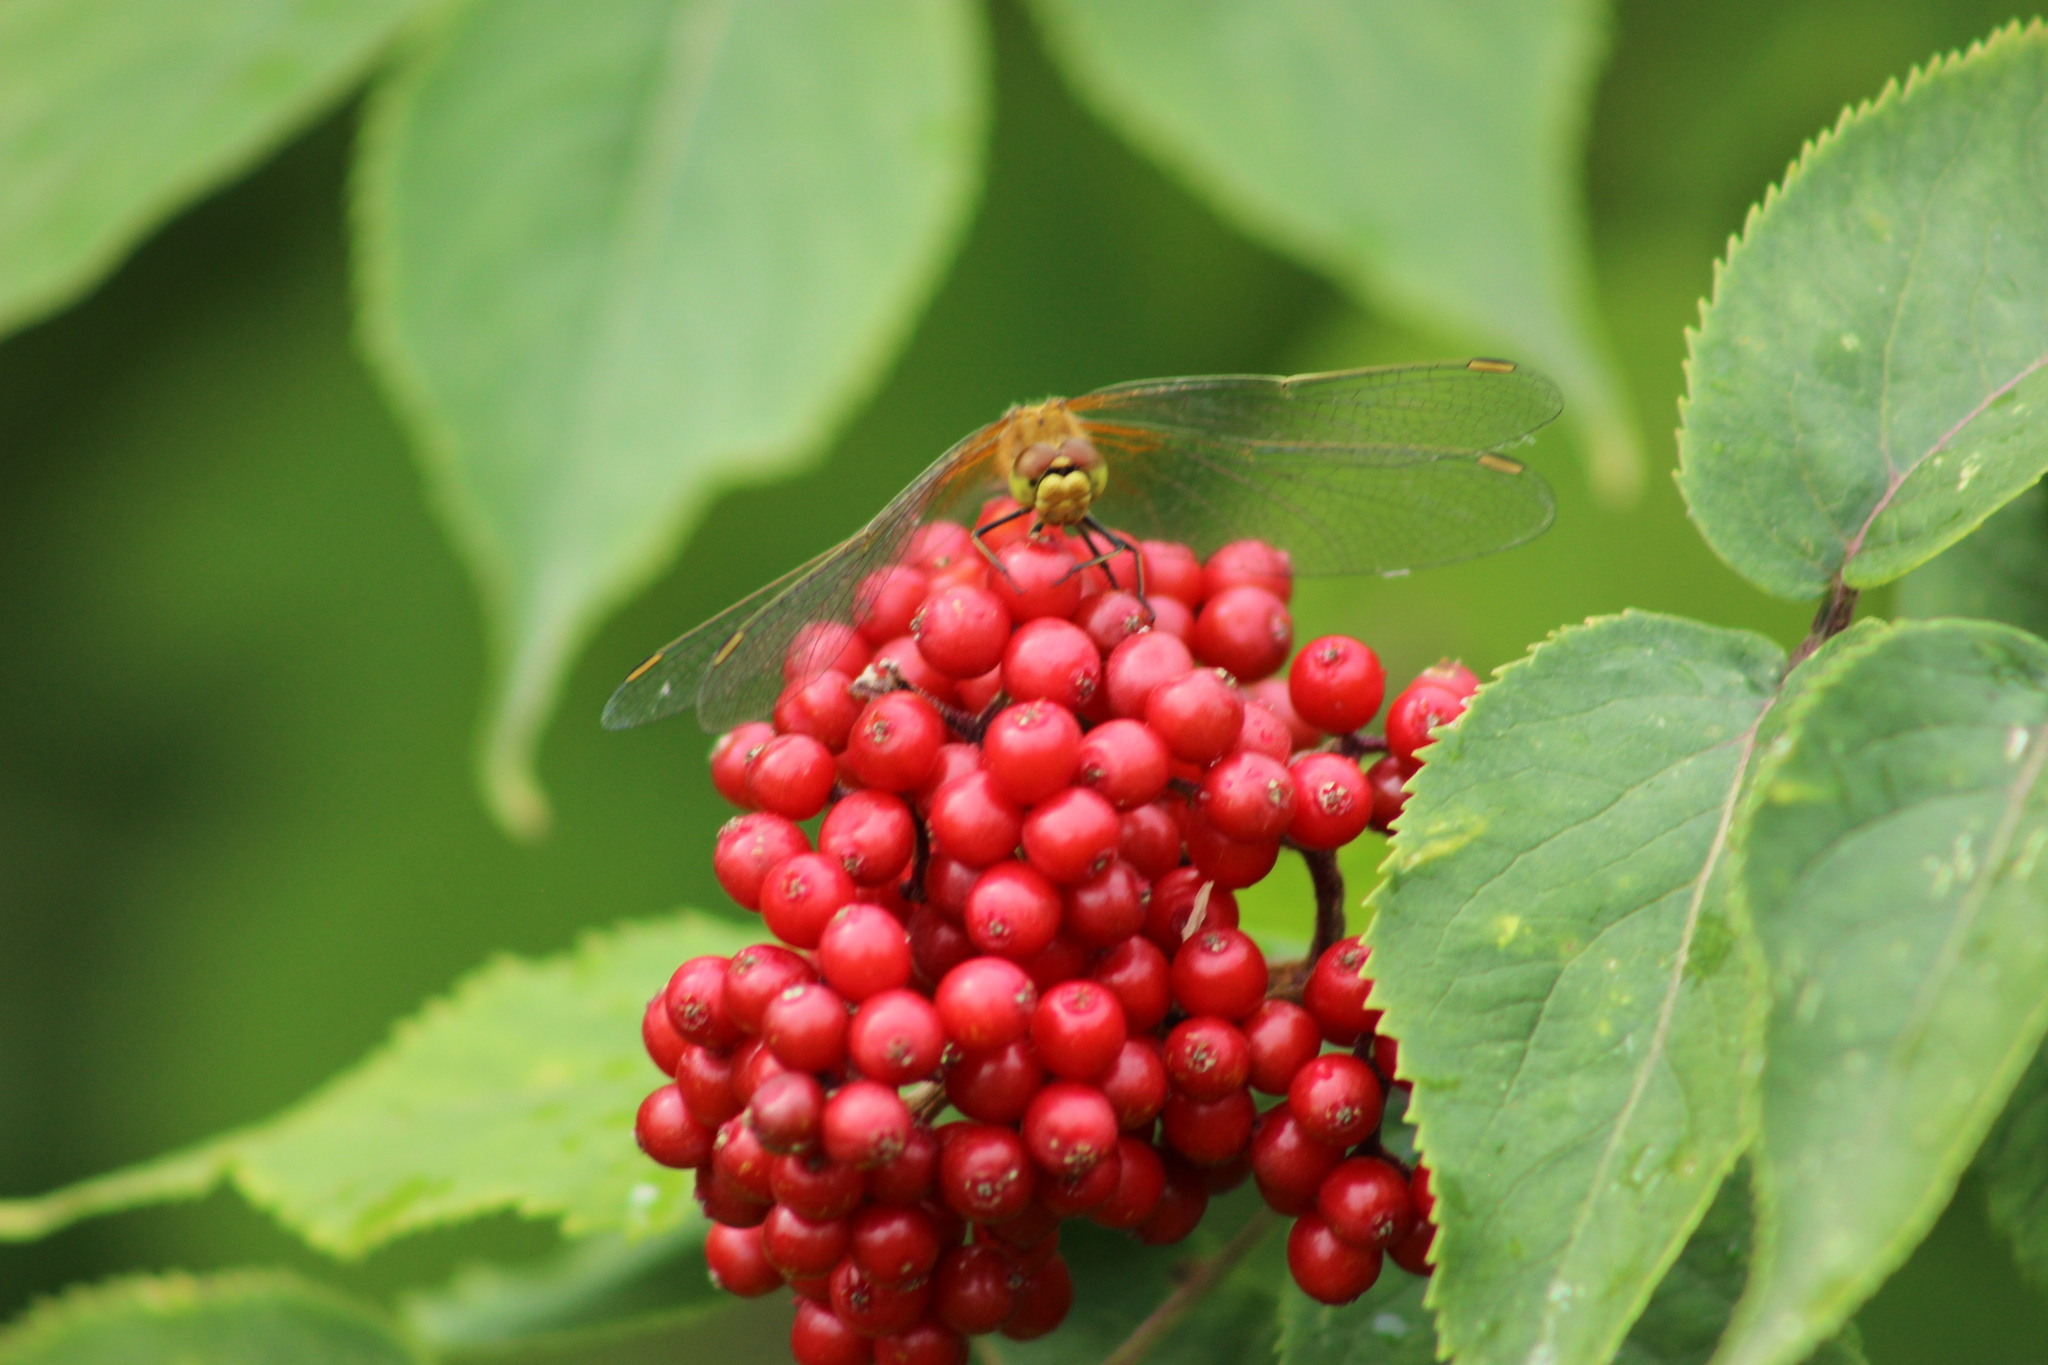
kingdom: Plantae
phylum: Tracheophyta
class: Magnoliopsida
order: Dipsacales
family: Viburnaceae
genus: Sambucus
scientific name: Sambucus sibirica
